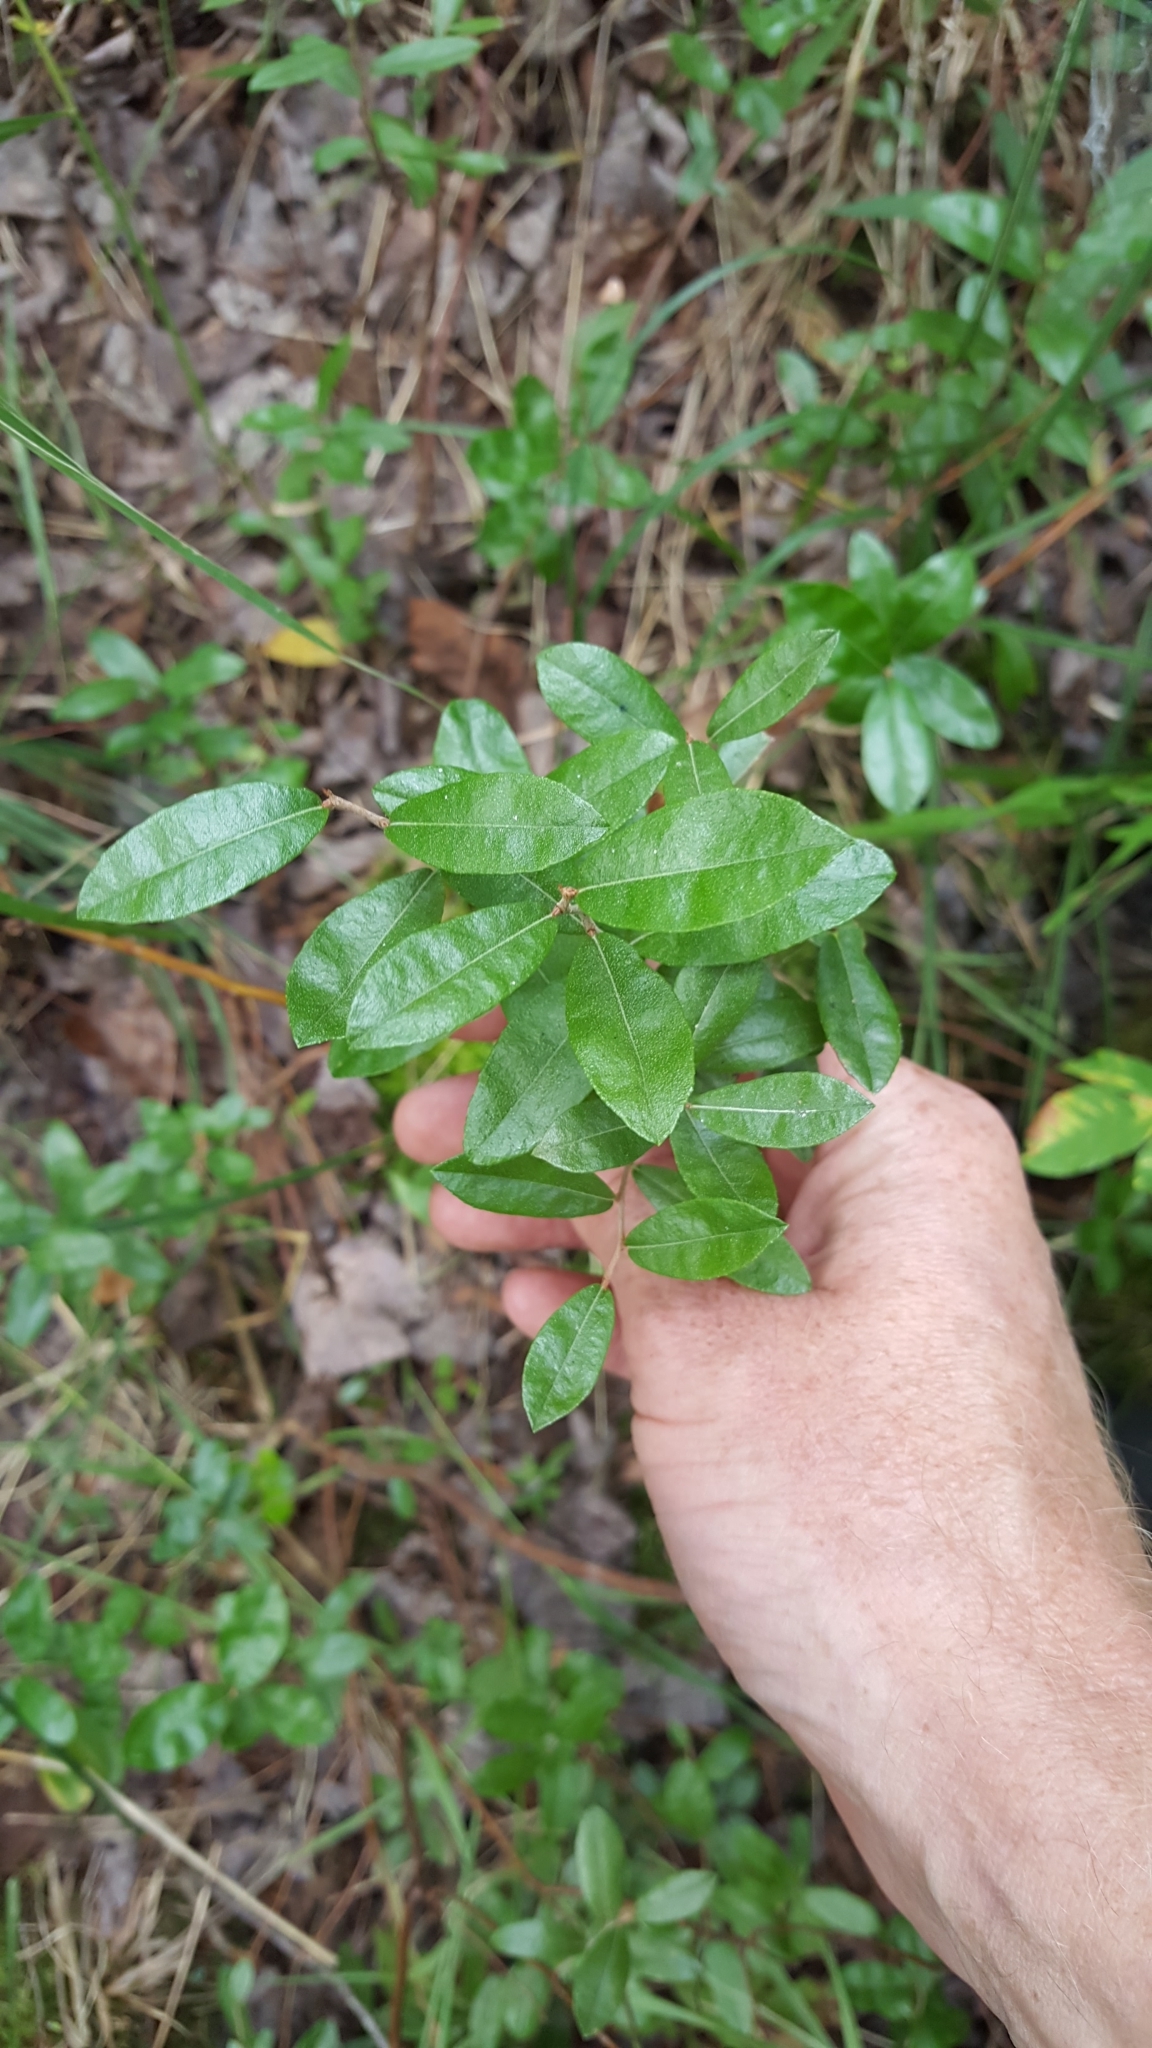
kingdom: Plantae
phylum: Tracheophyta
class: Magnoliopsida
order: Ericales
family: Ericaceae
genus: Chamaedaphne
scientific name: Chamaedaphne calyculata
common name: Leatherleaf
